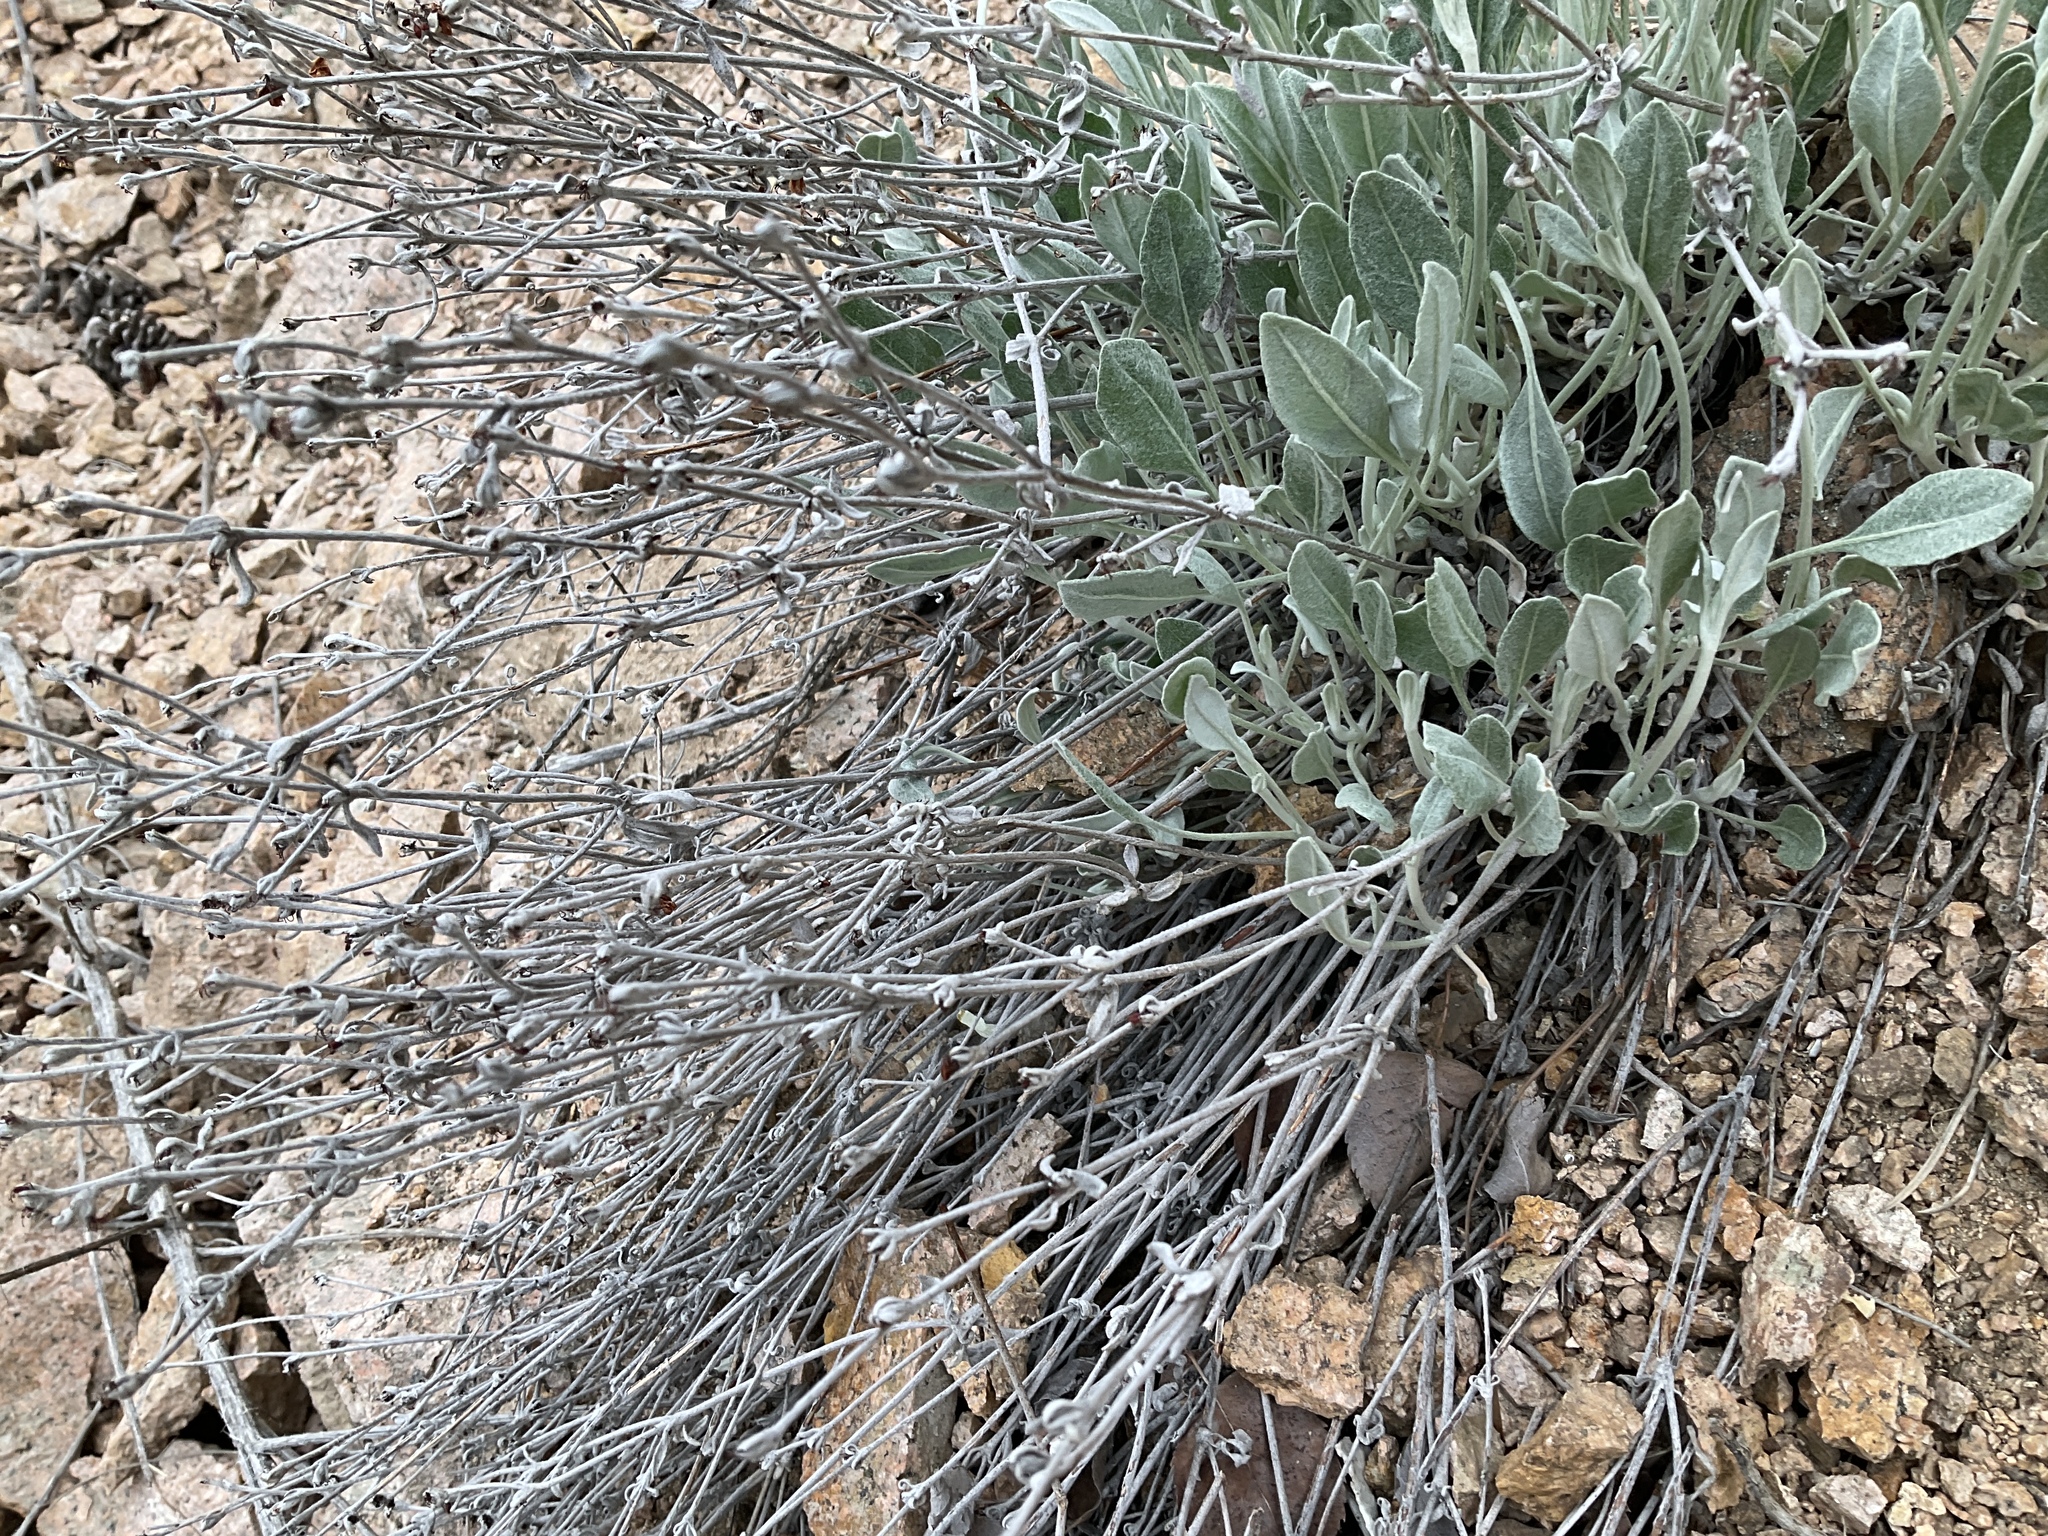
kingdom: Plantae
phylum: Tracheophyta
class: Magnoliopsida
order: Caryophyllales
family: Polygonaceae
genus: Eriogonum
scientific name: Eriogonum niveum
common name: Snow wild buckwheat
